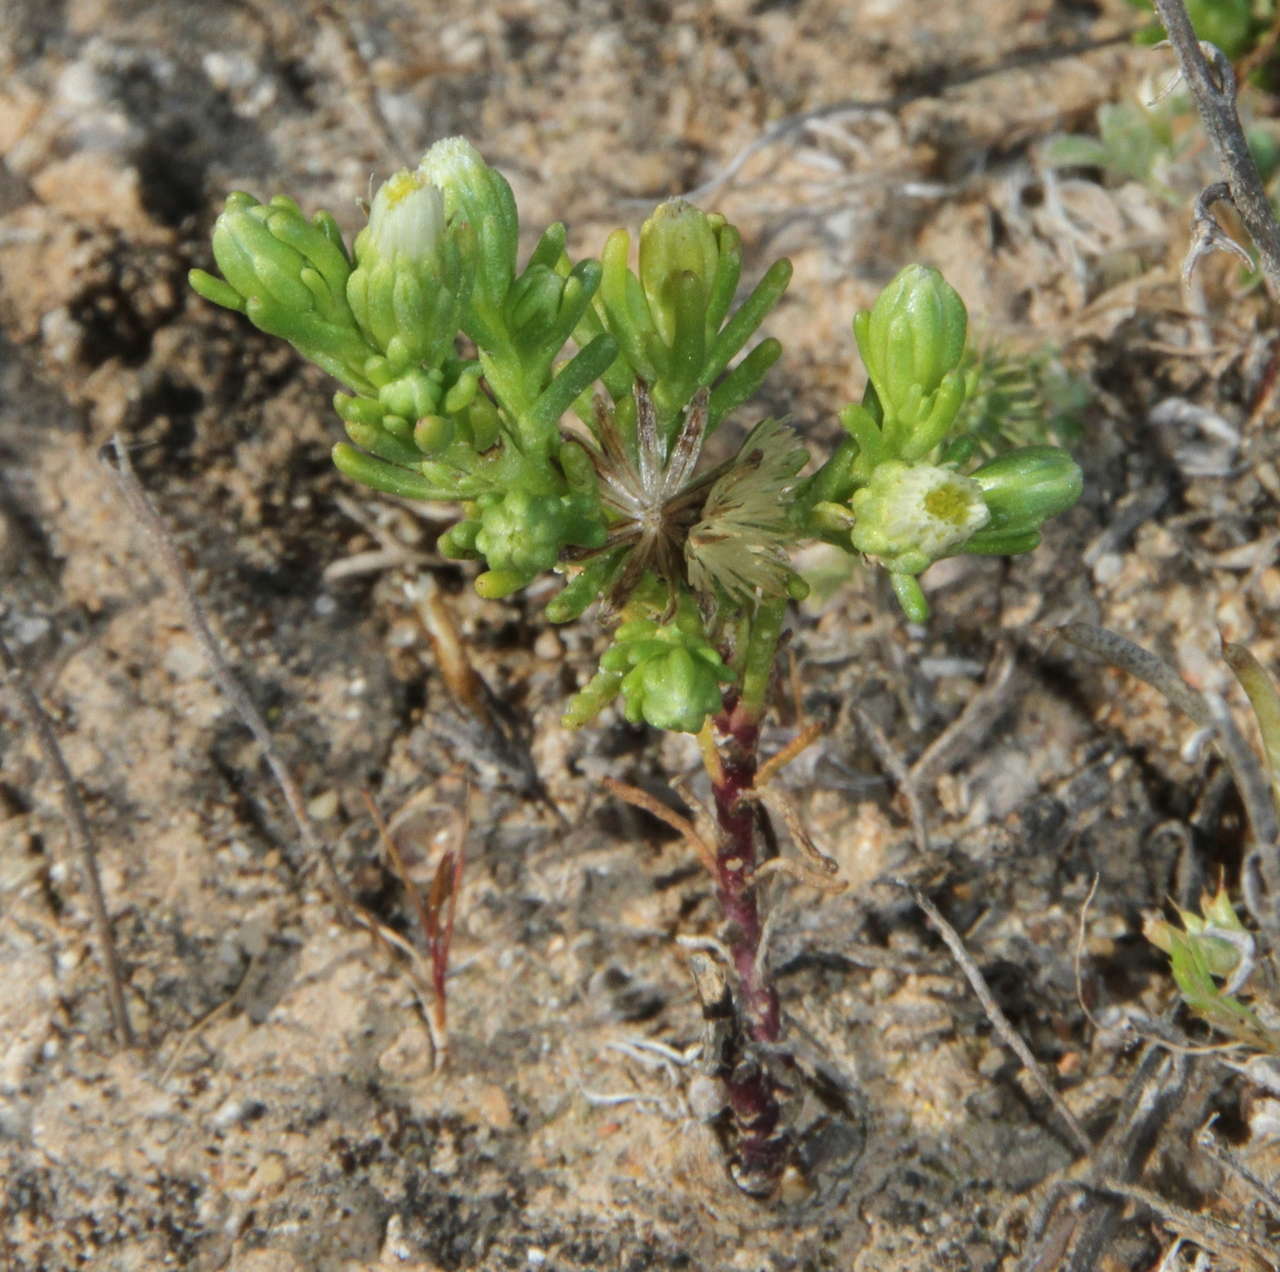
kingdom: Plantae
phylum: Tracheophyta
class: Magnoliopsida
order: Asterales
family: Asteraceae
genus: Elachanthus
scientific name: Elachanthus glaber
